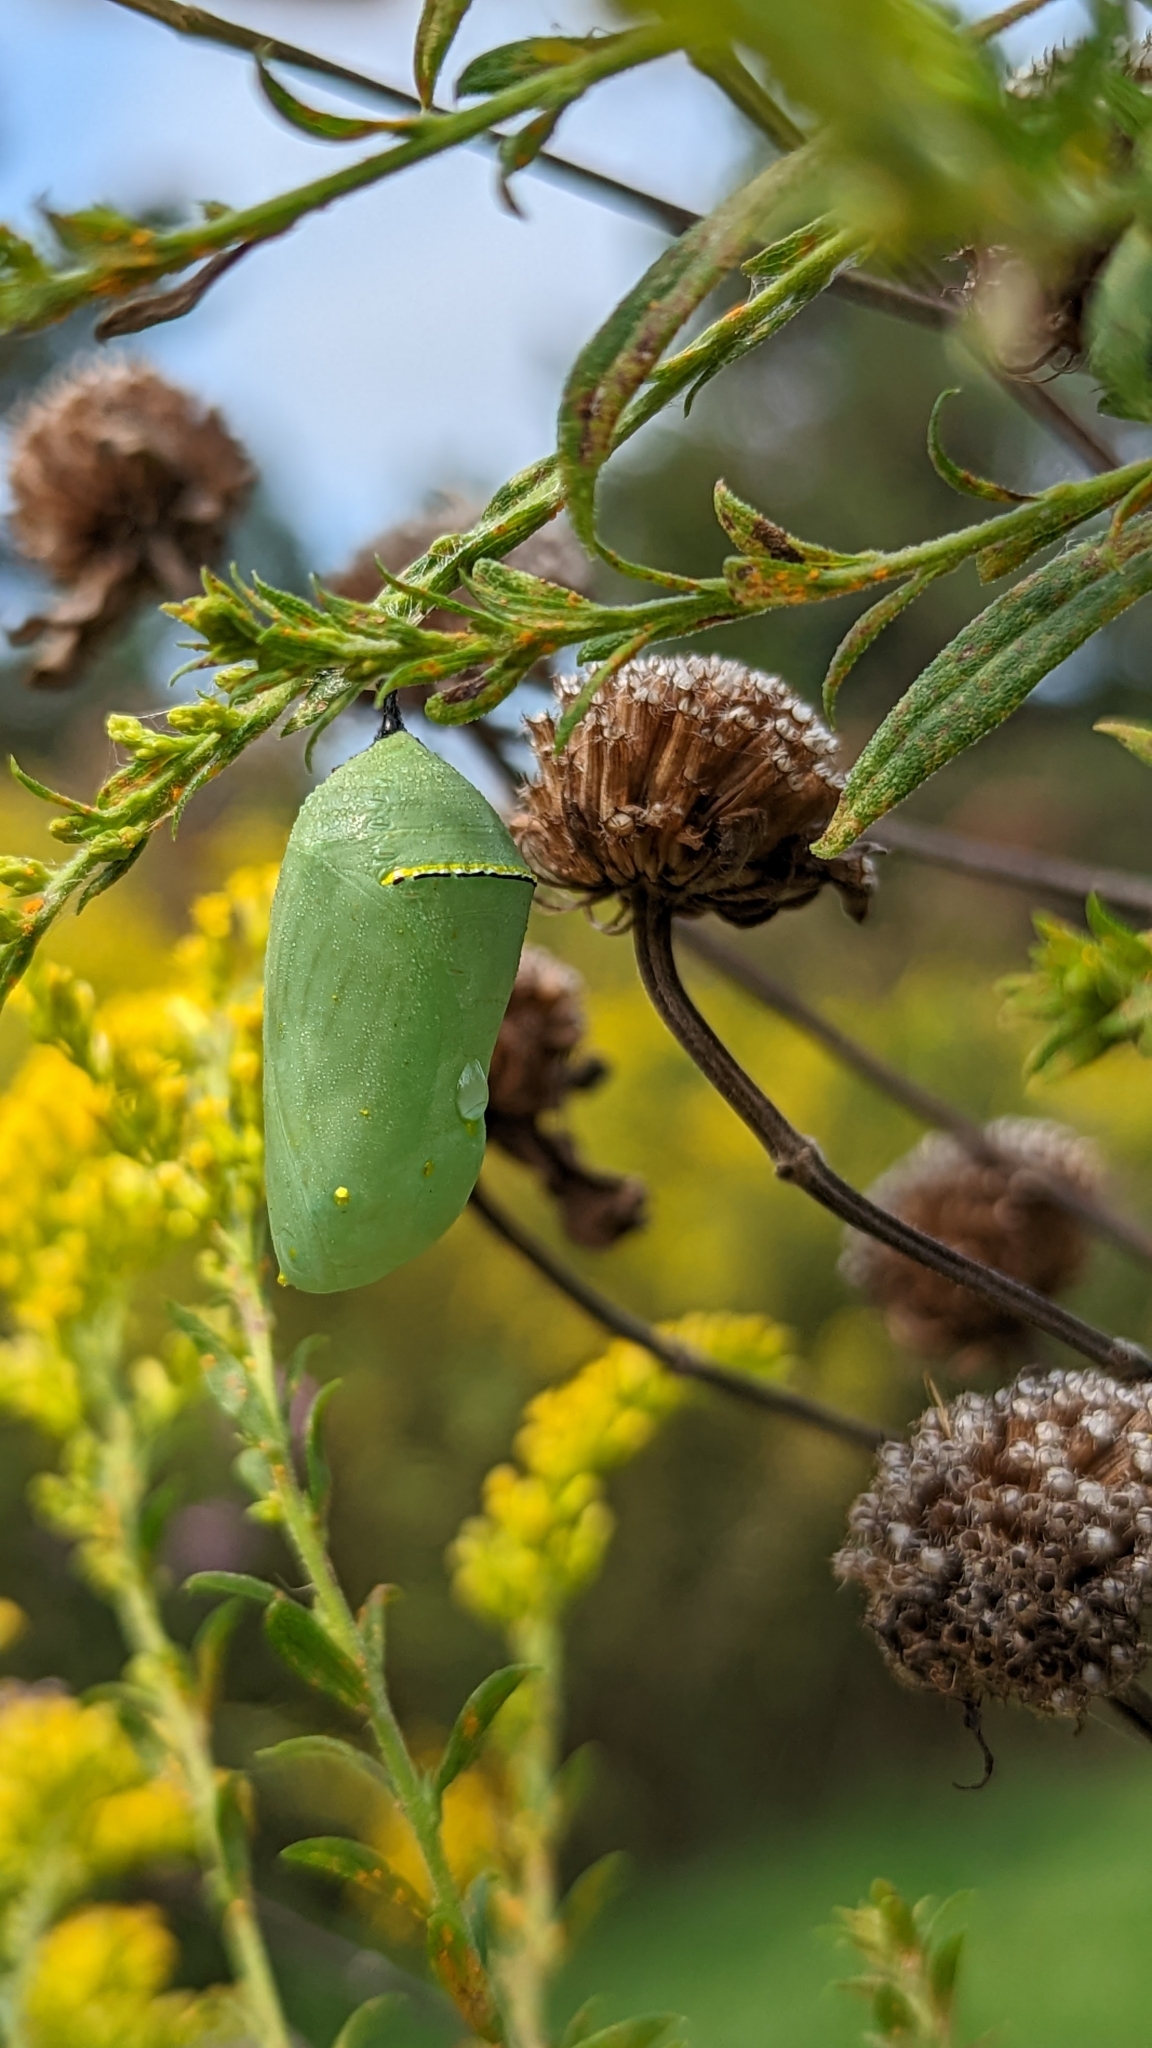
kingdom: Animalia
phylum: Arthropoda
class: Insecta
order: Lepidoptera
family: Nymphalidae
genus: Danaus
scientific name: Danaus plexippus
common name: Monarch
